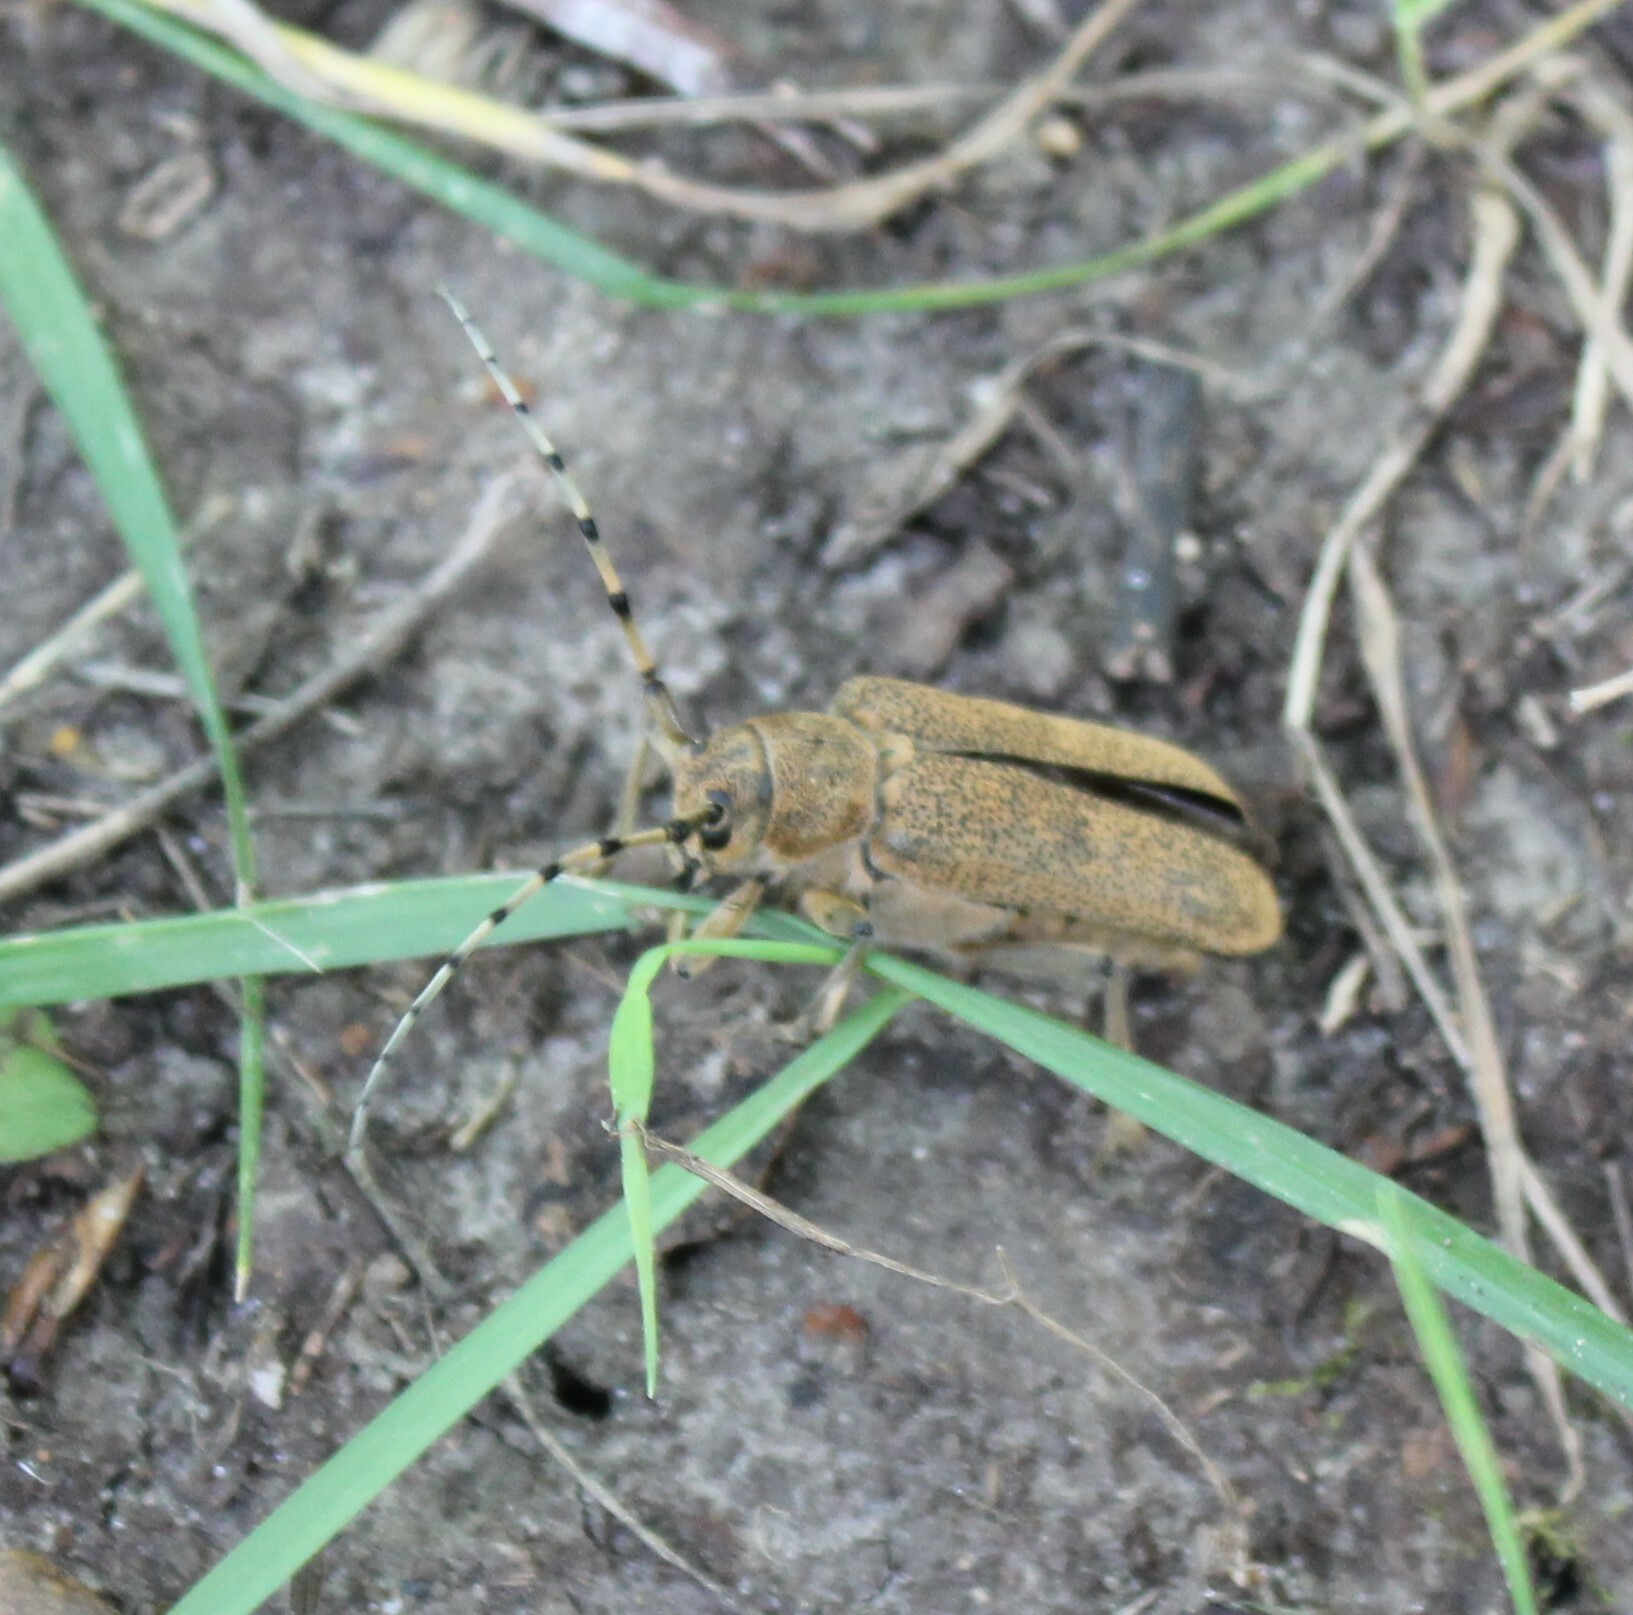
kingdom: Animalia
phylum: Arthropoda
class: Insecta
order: Coleoptera
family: Cerambycidae
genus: Saperda
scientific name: Saperda carcharias
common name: Poplar borer
